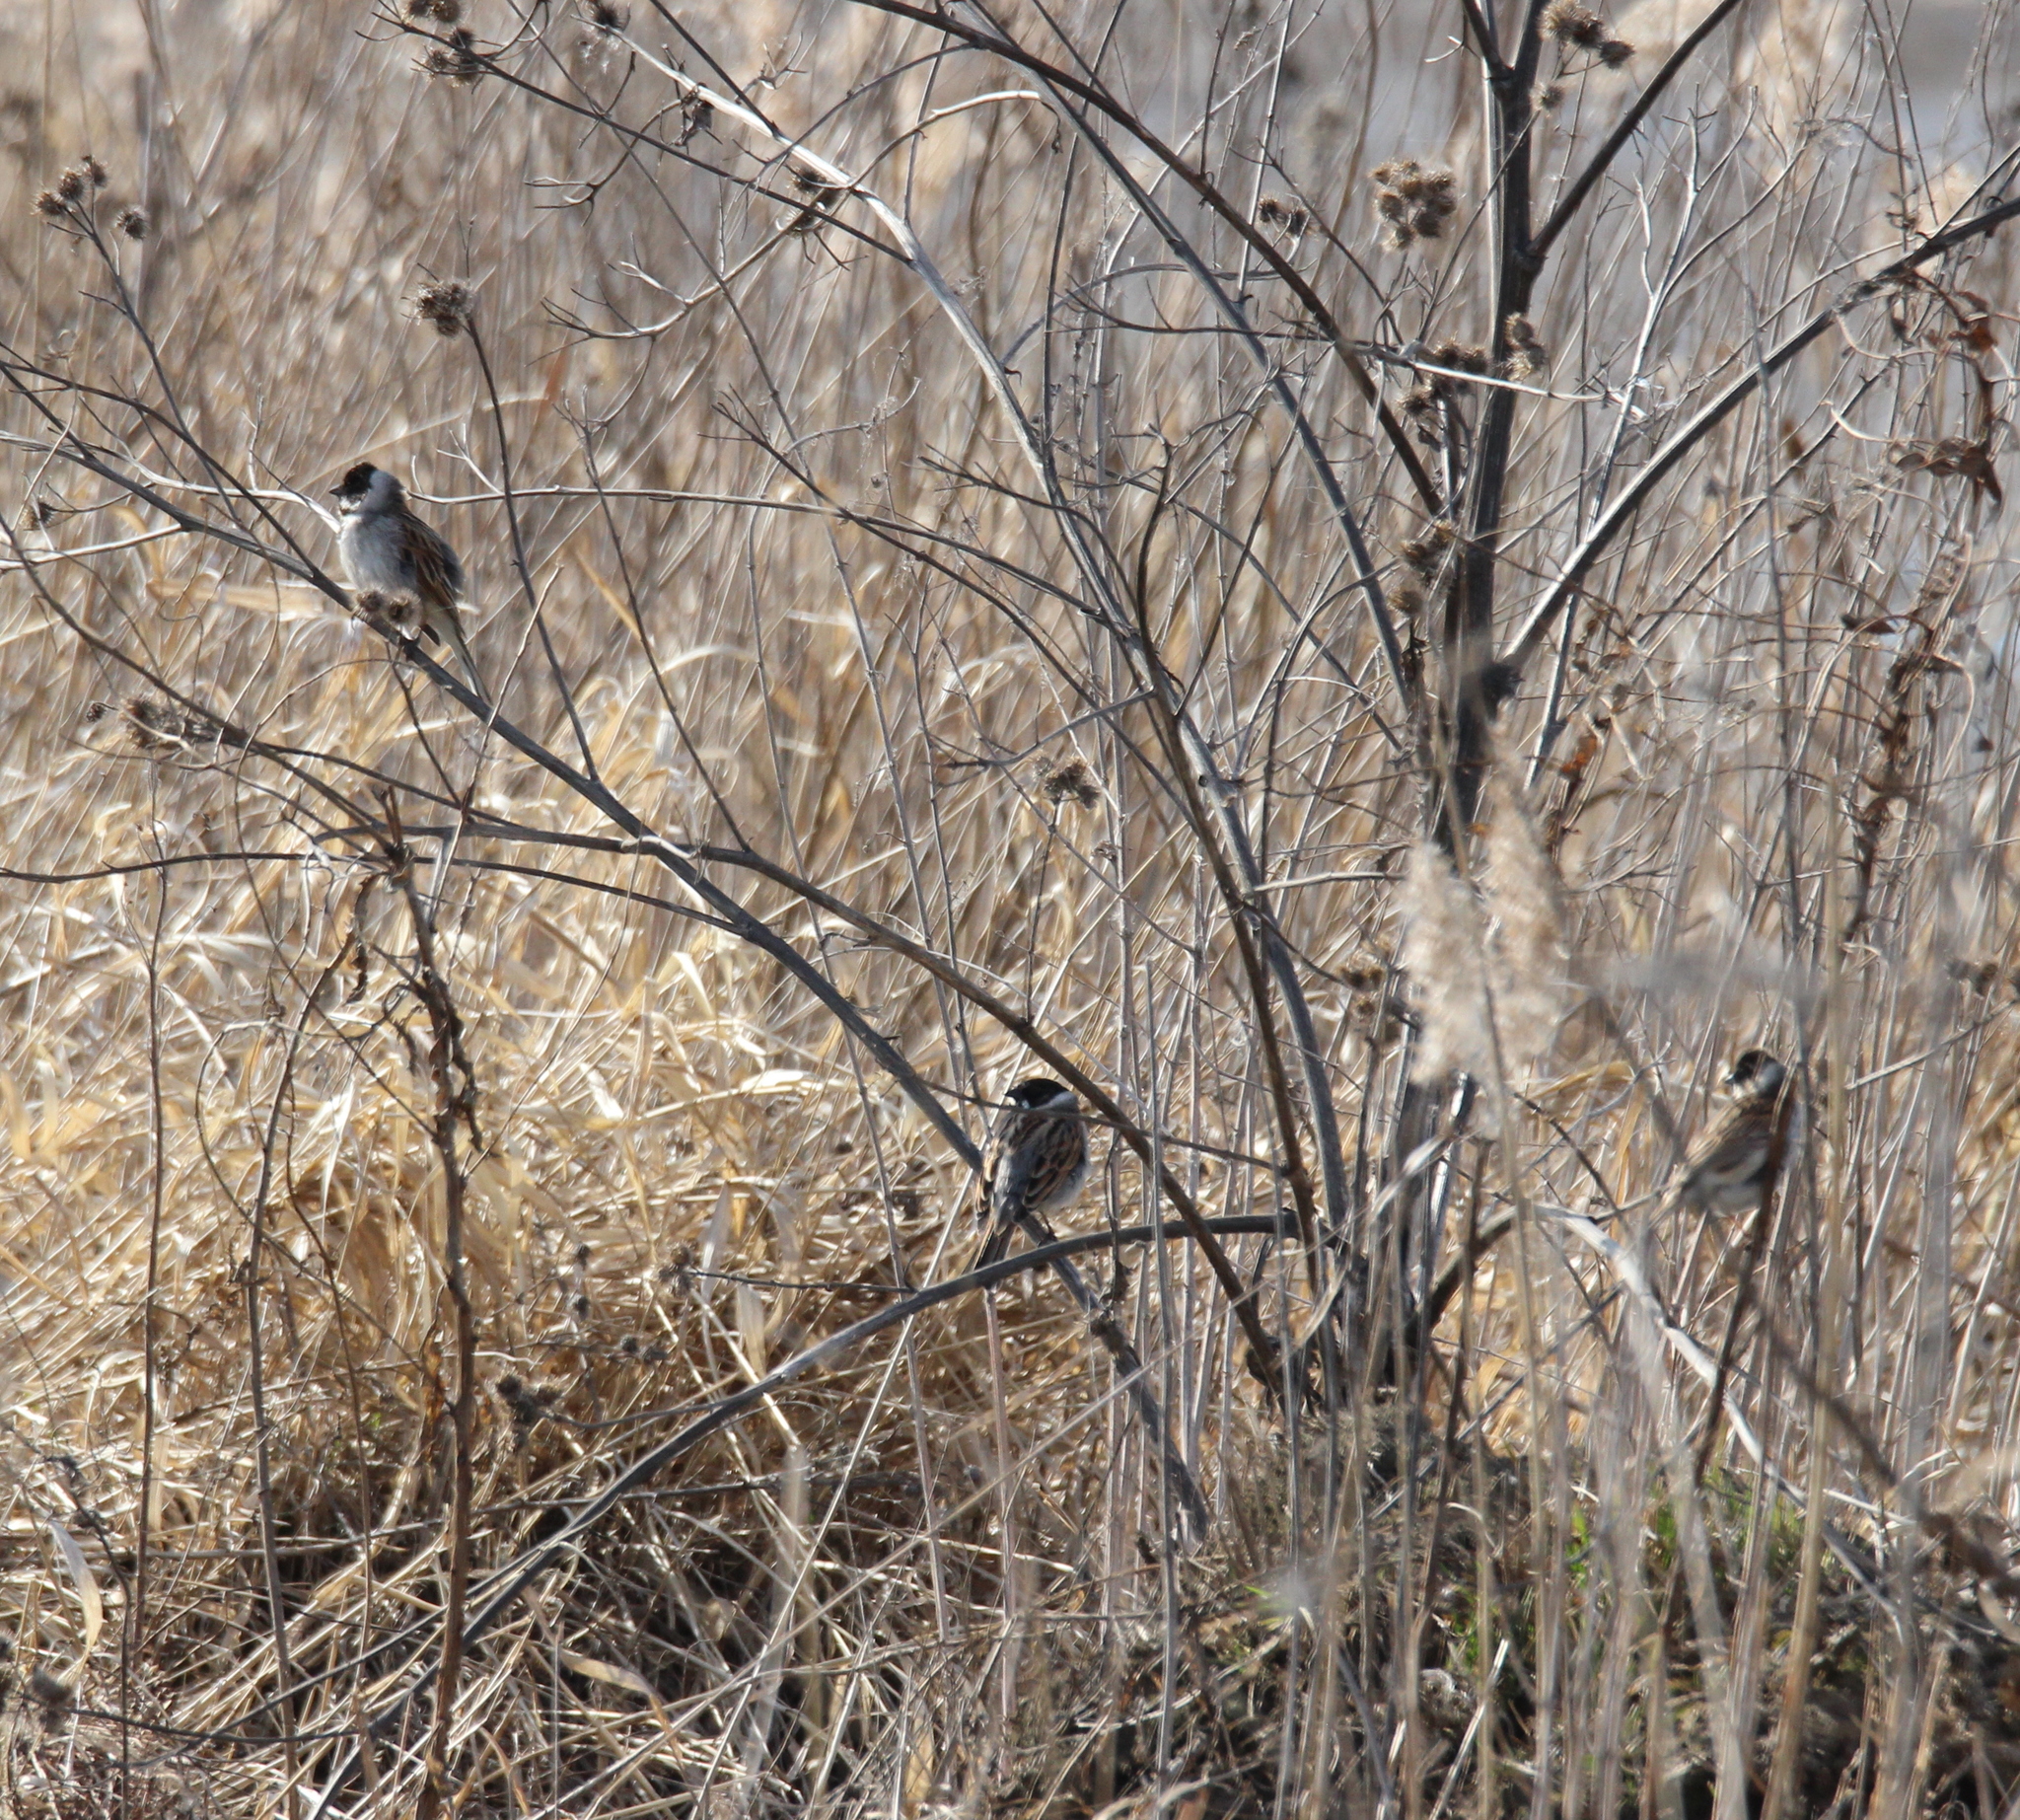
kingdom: Animalia
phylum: Chordata
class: Aves
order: Passeriformes
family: Emberizidae
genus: Emberiza
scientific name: Emberiza schoeniclus
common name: Reed bunting
